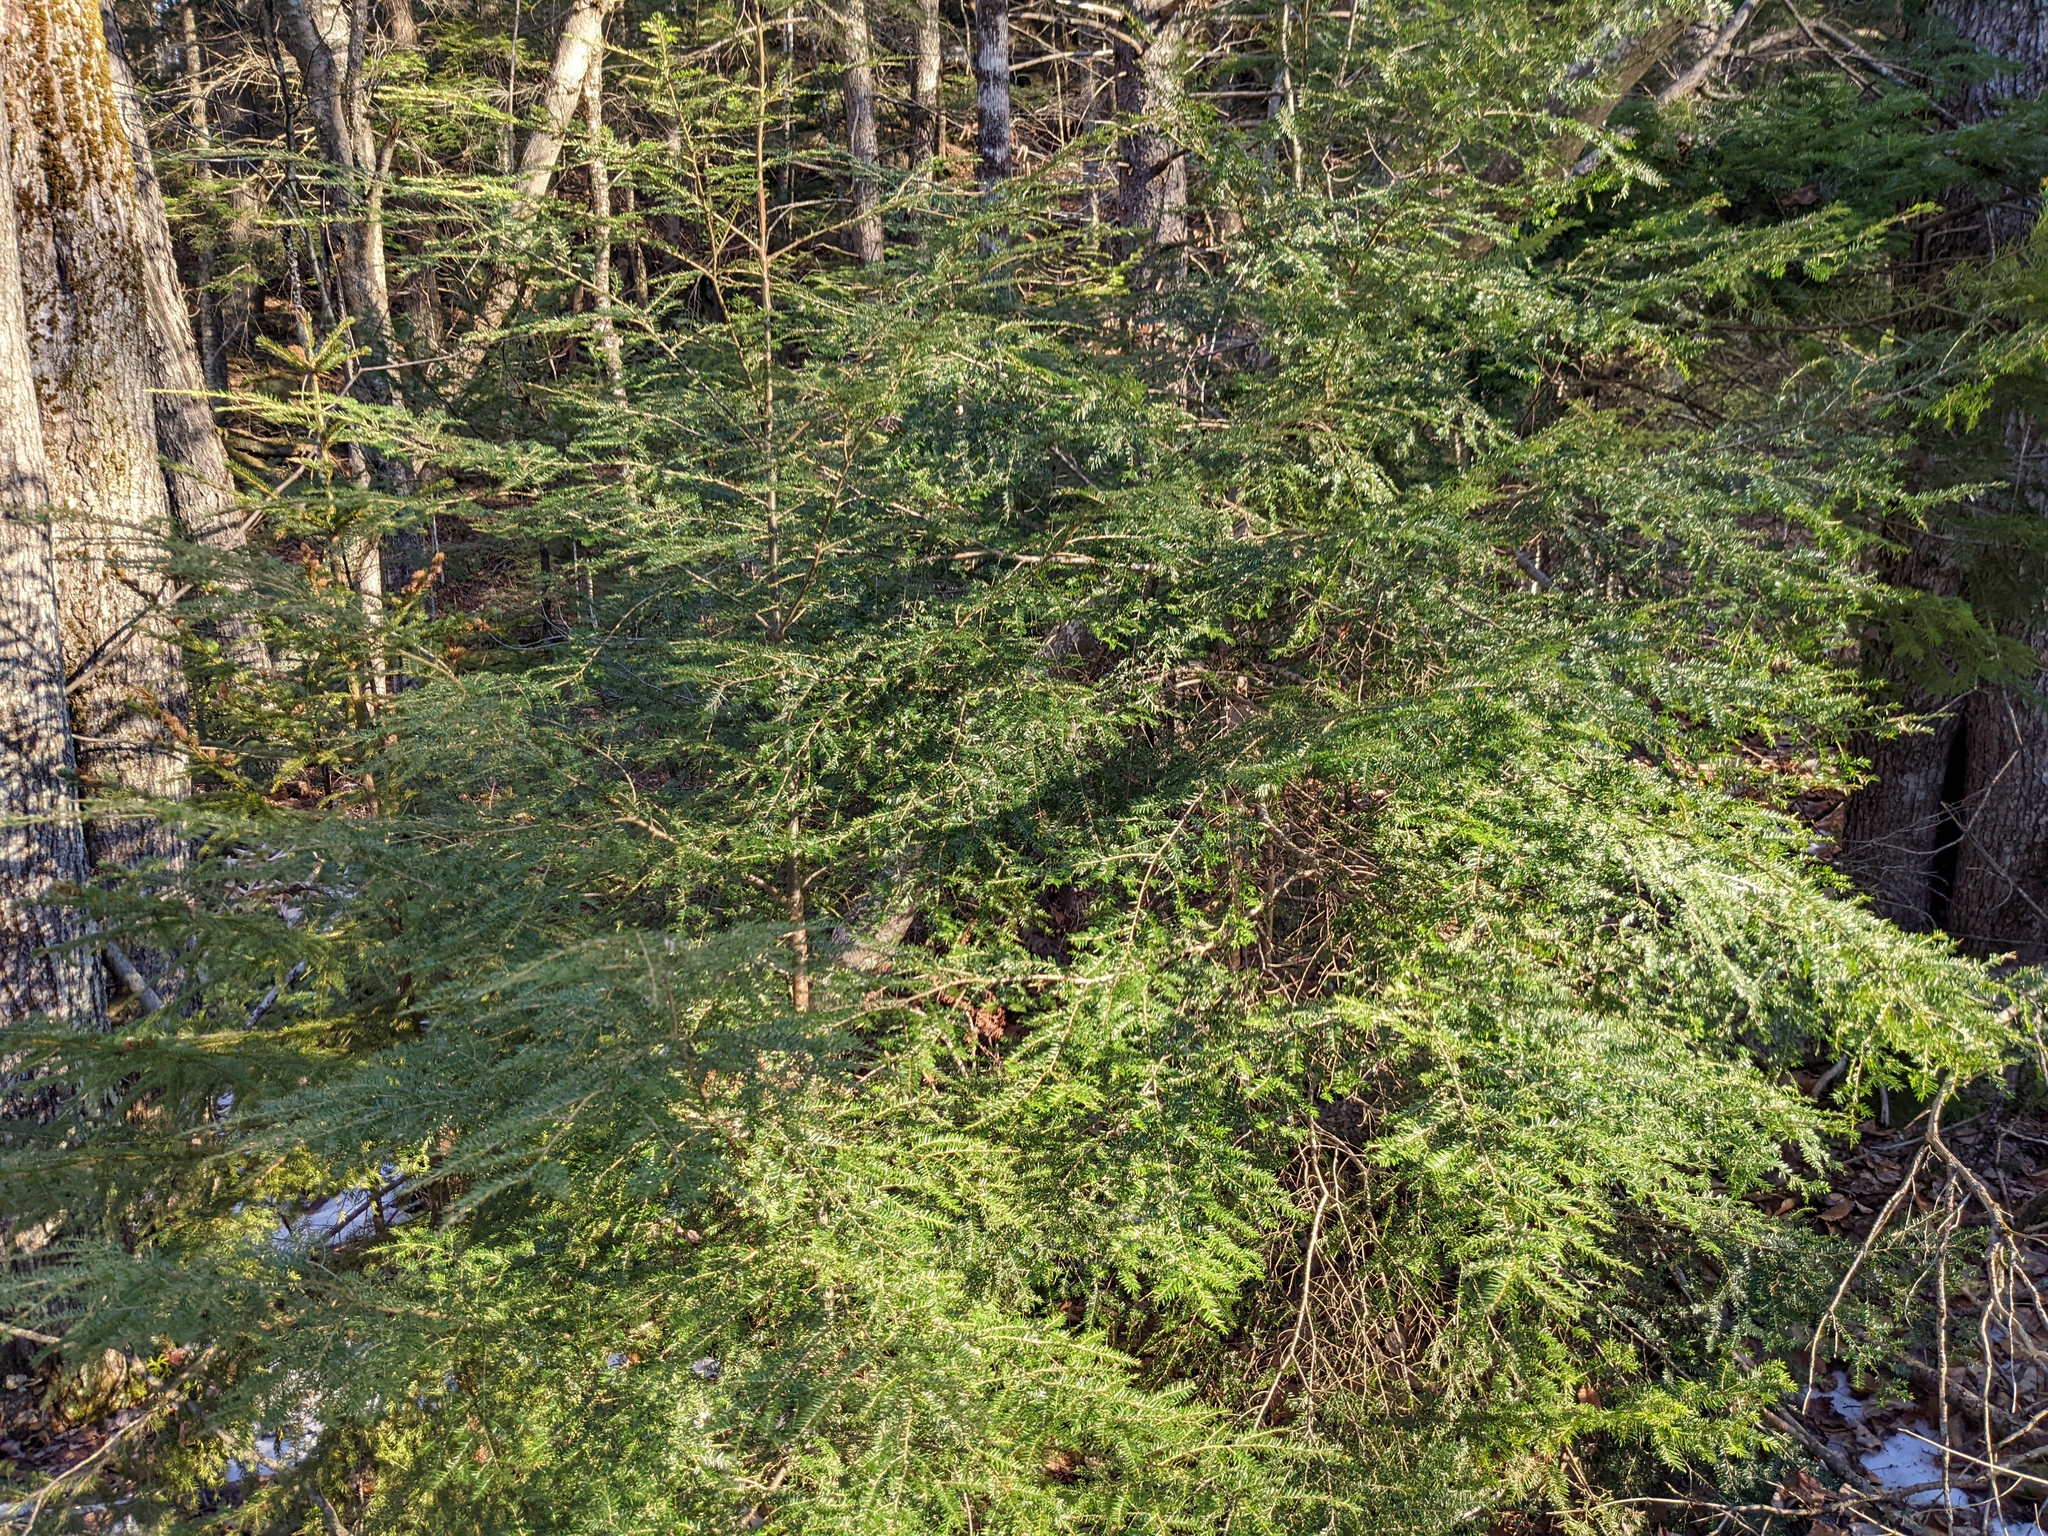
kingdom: Plantae
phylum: Tracheophyta
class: Pinopsida
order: Pinales
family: Pinaceae
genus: Tsuga
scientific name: Tsuga canadensis
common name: Eastern hemlock
